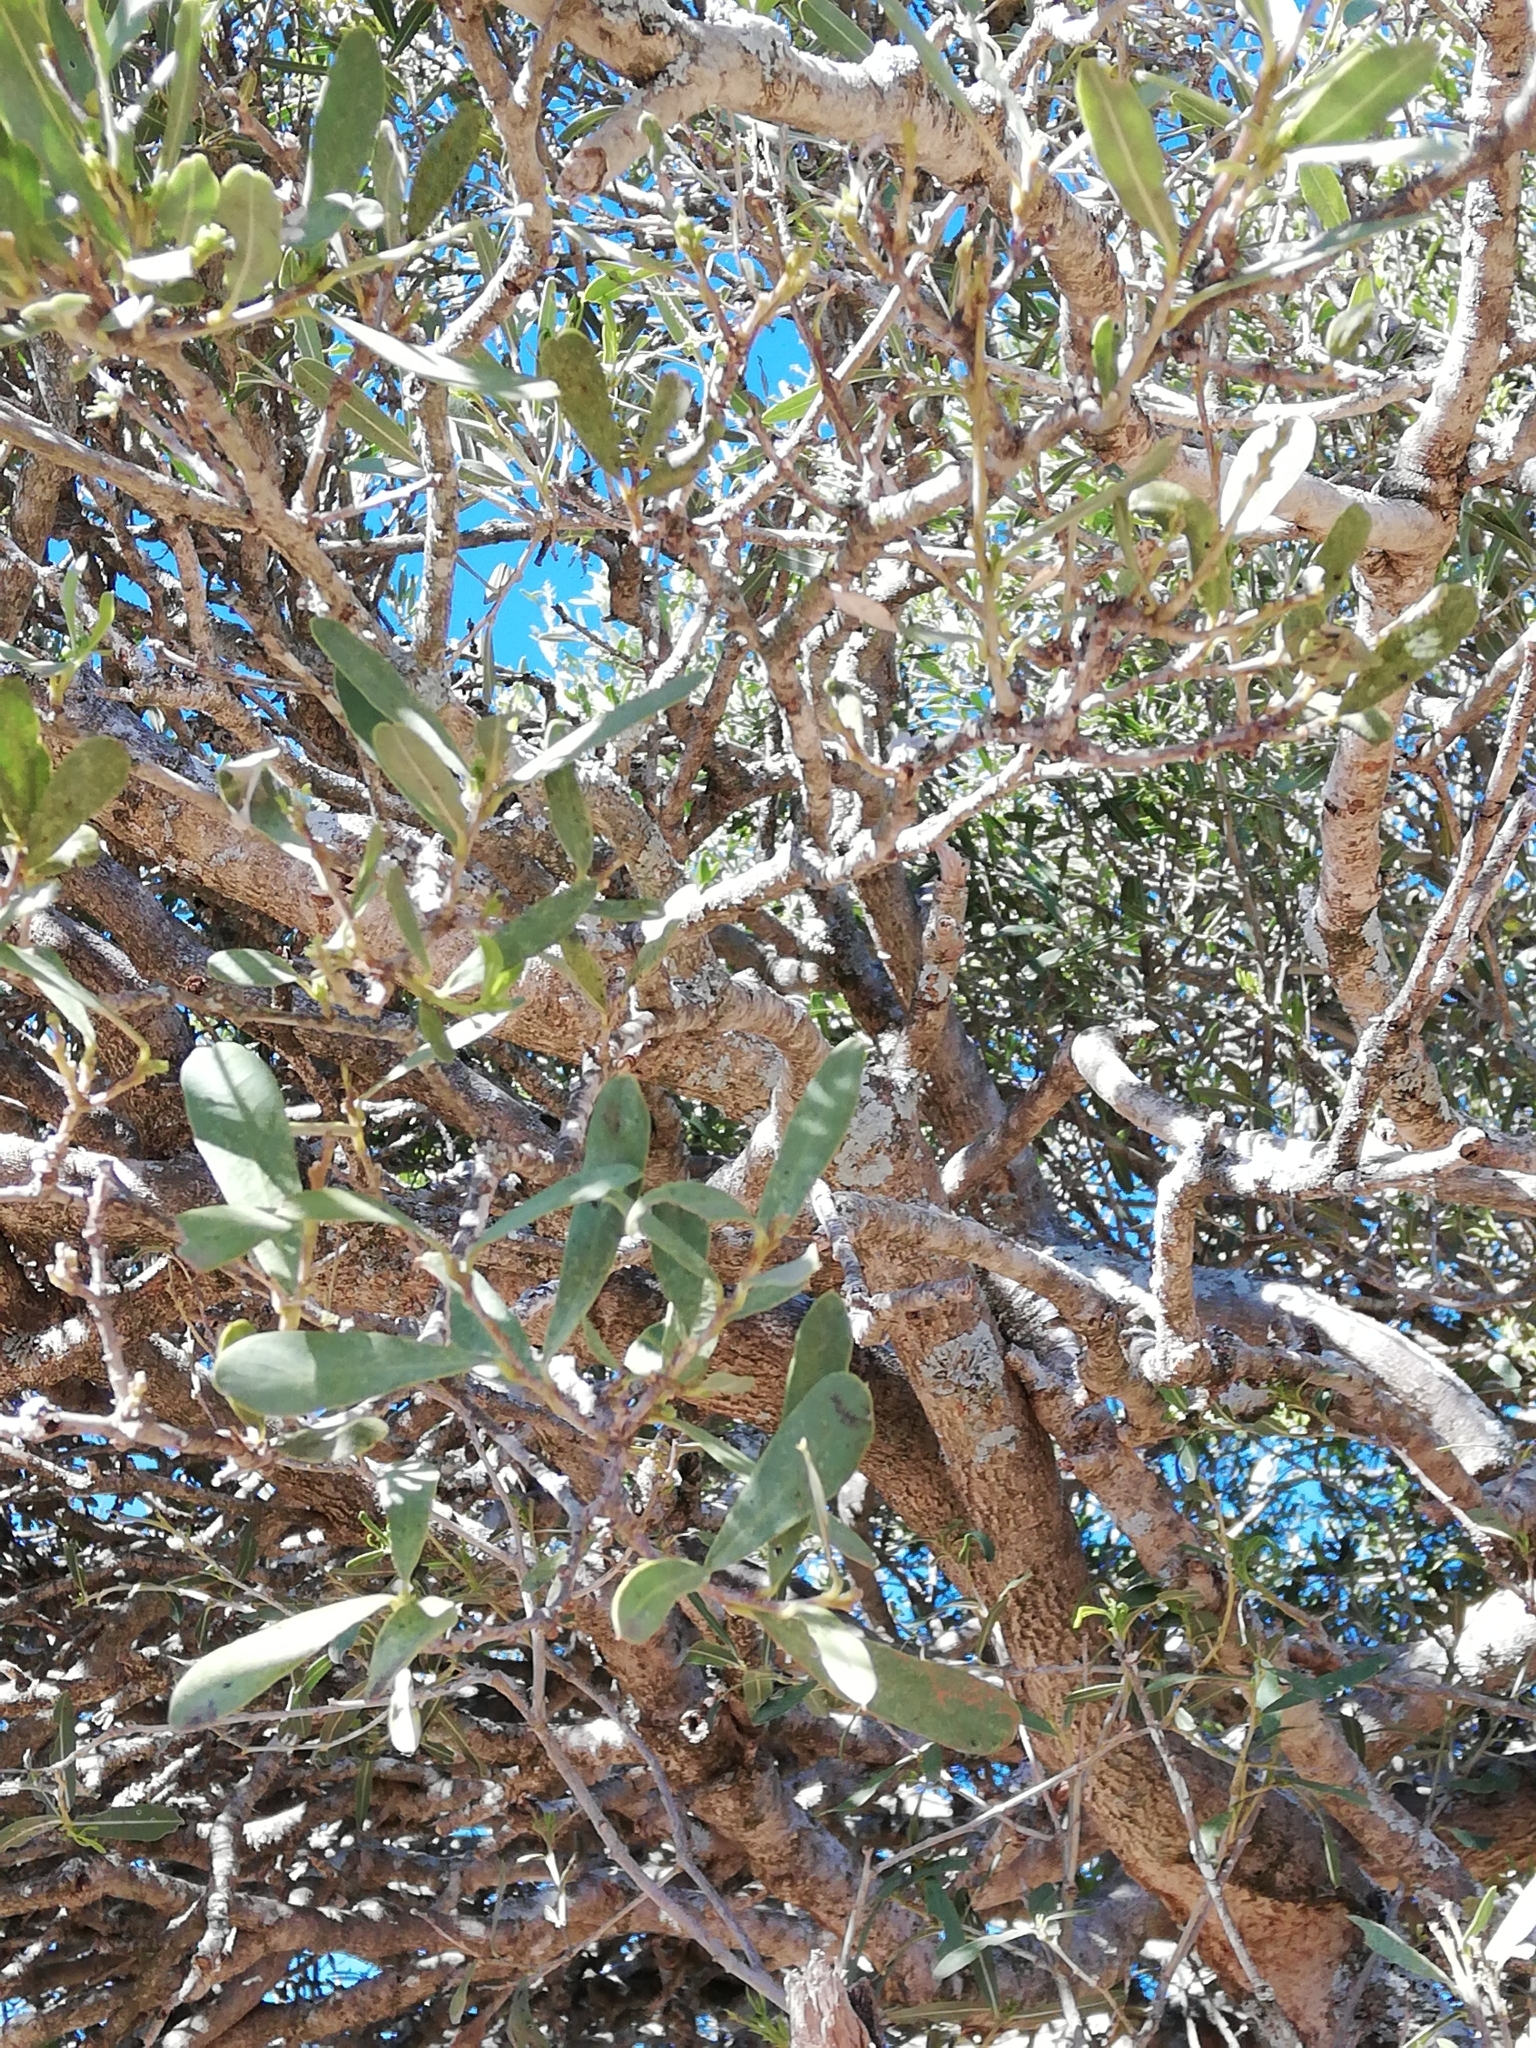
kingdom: Plantae
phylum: Tracheophyta
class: Magnoliopsida
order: Brassicales
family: Capparaceae
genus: Boscia
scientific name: Boscia oleoides
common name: Karoo shepherd tree
